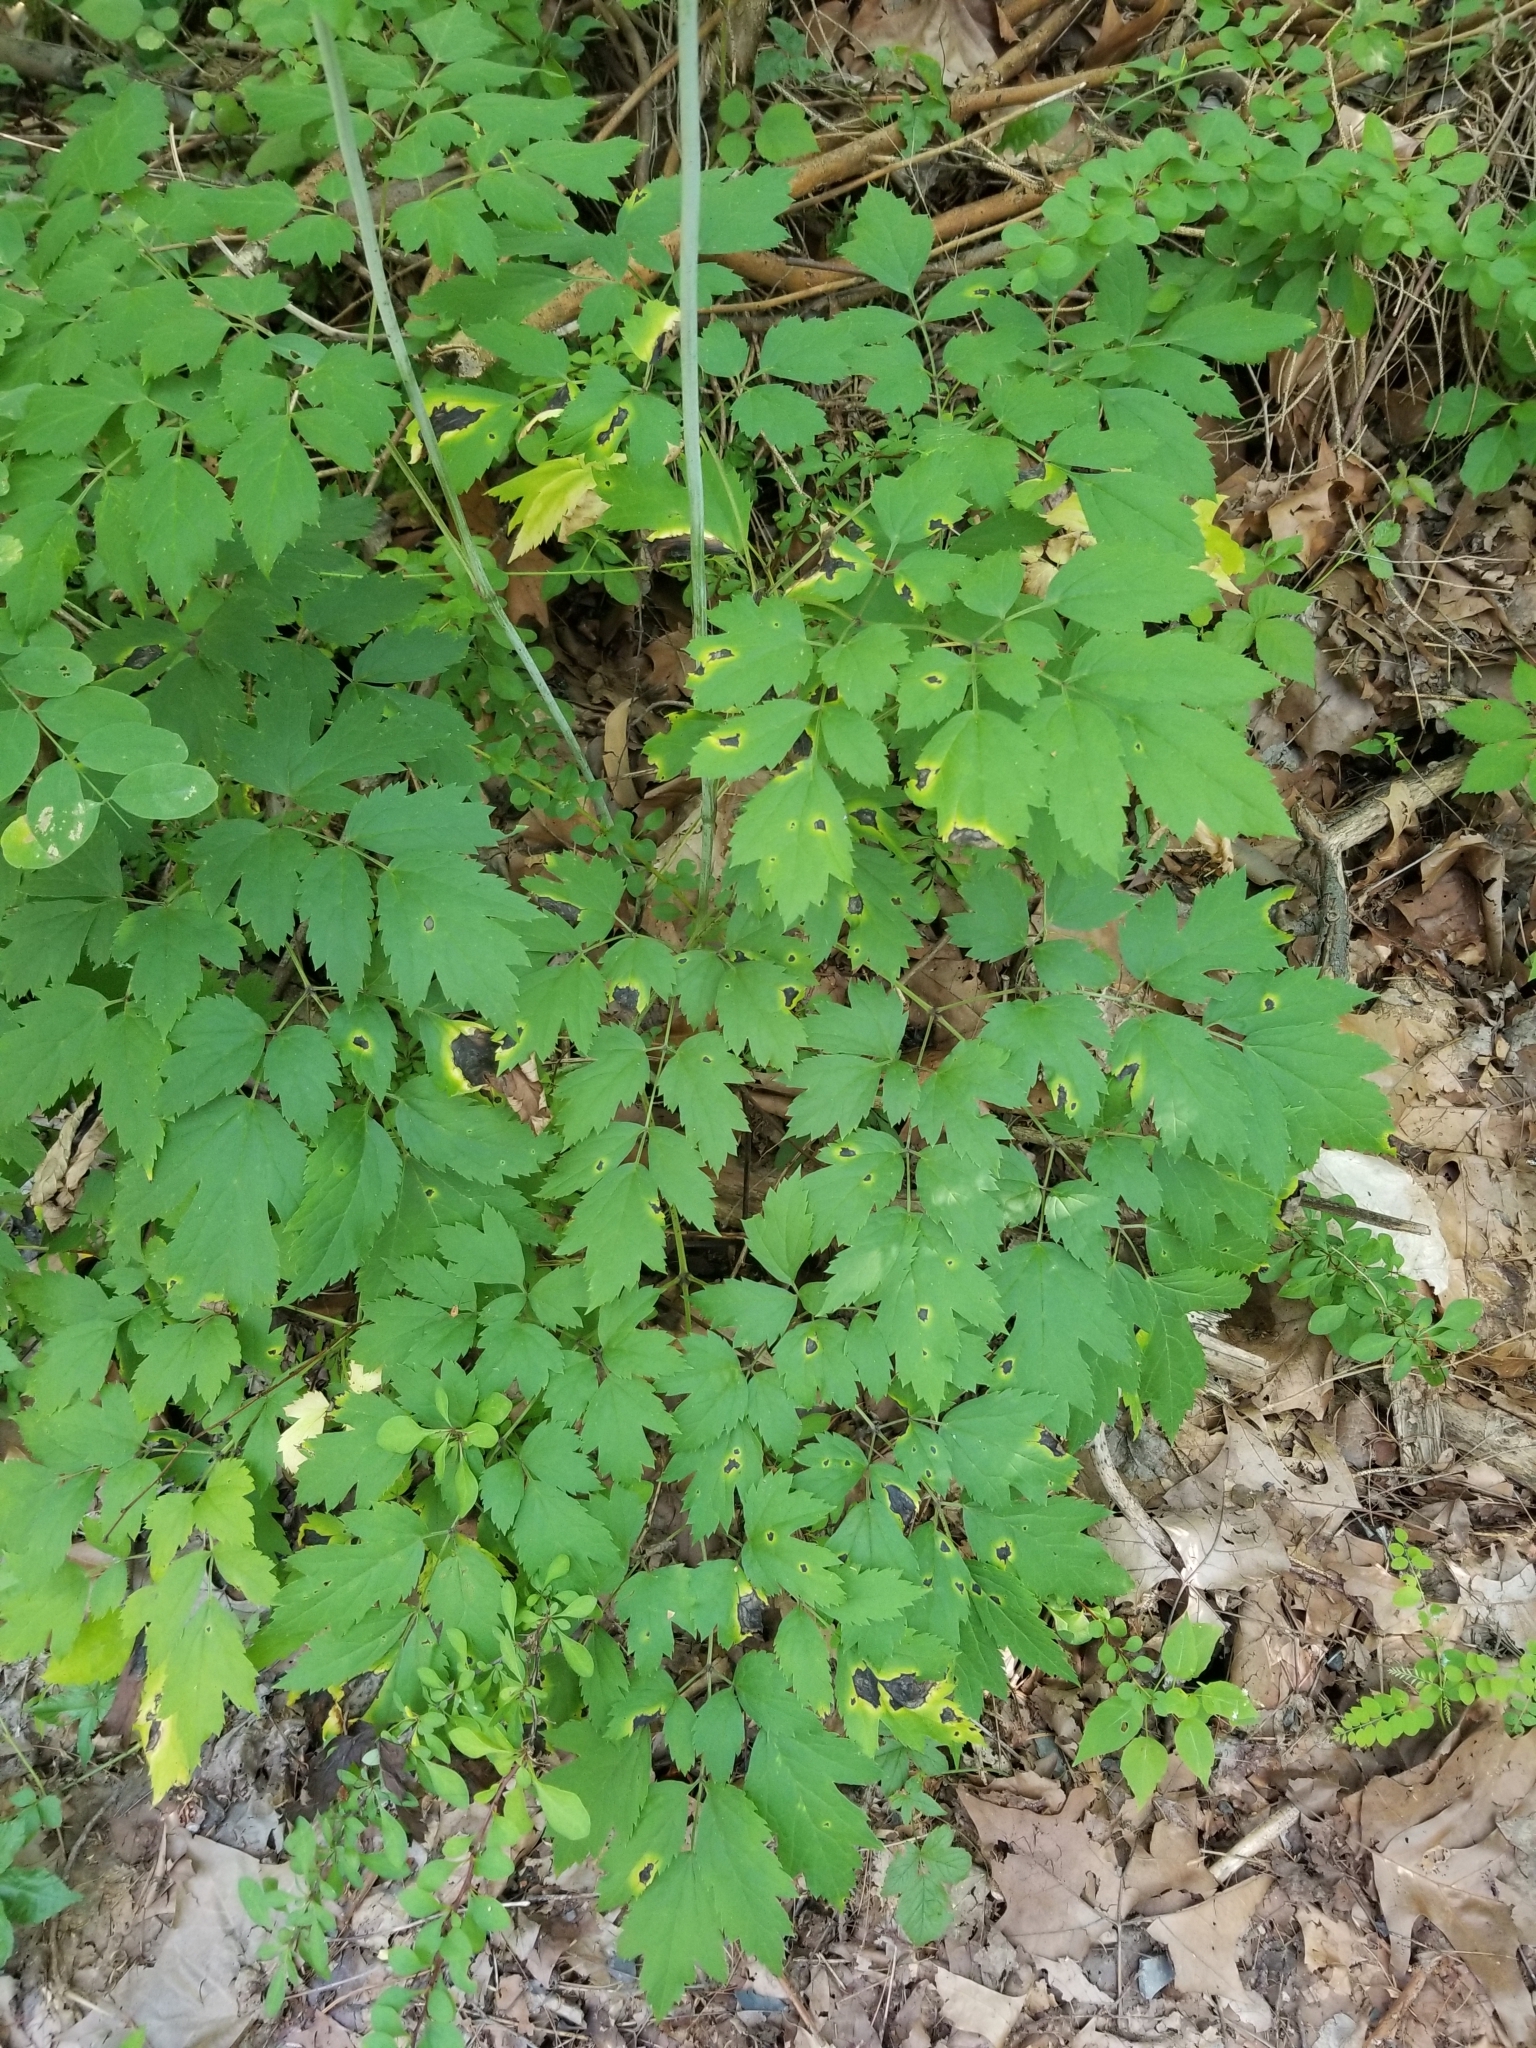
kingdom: Plantae
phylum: Tracheophyta
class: Magnoliopsida
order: Ranunculales
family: Ranunculaceae
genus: Actaea
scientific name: Actaea racemosa
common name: Black cohosh
